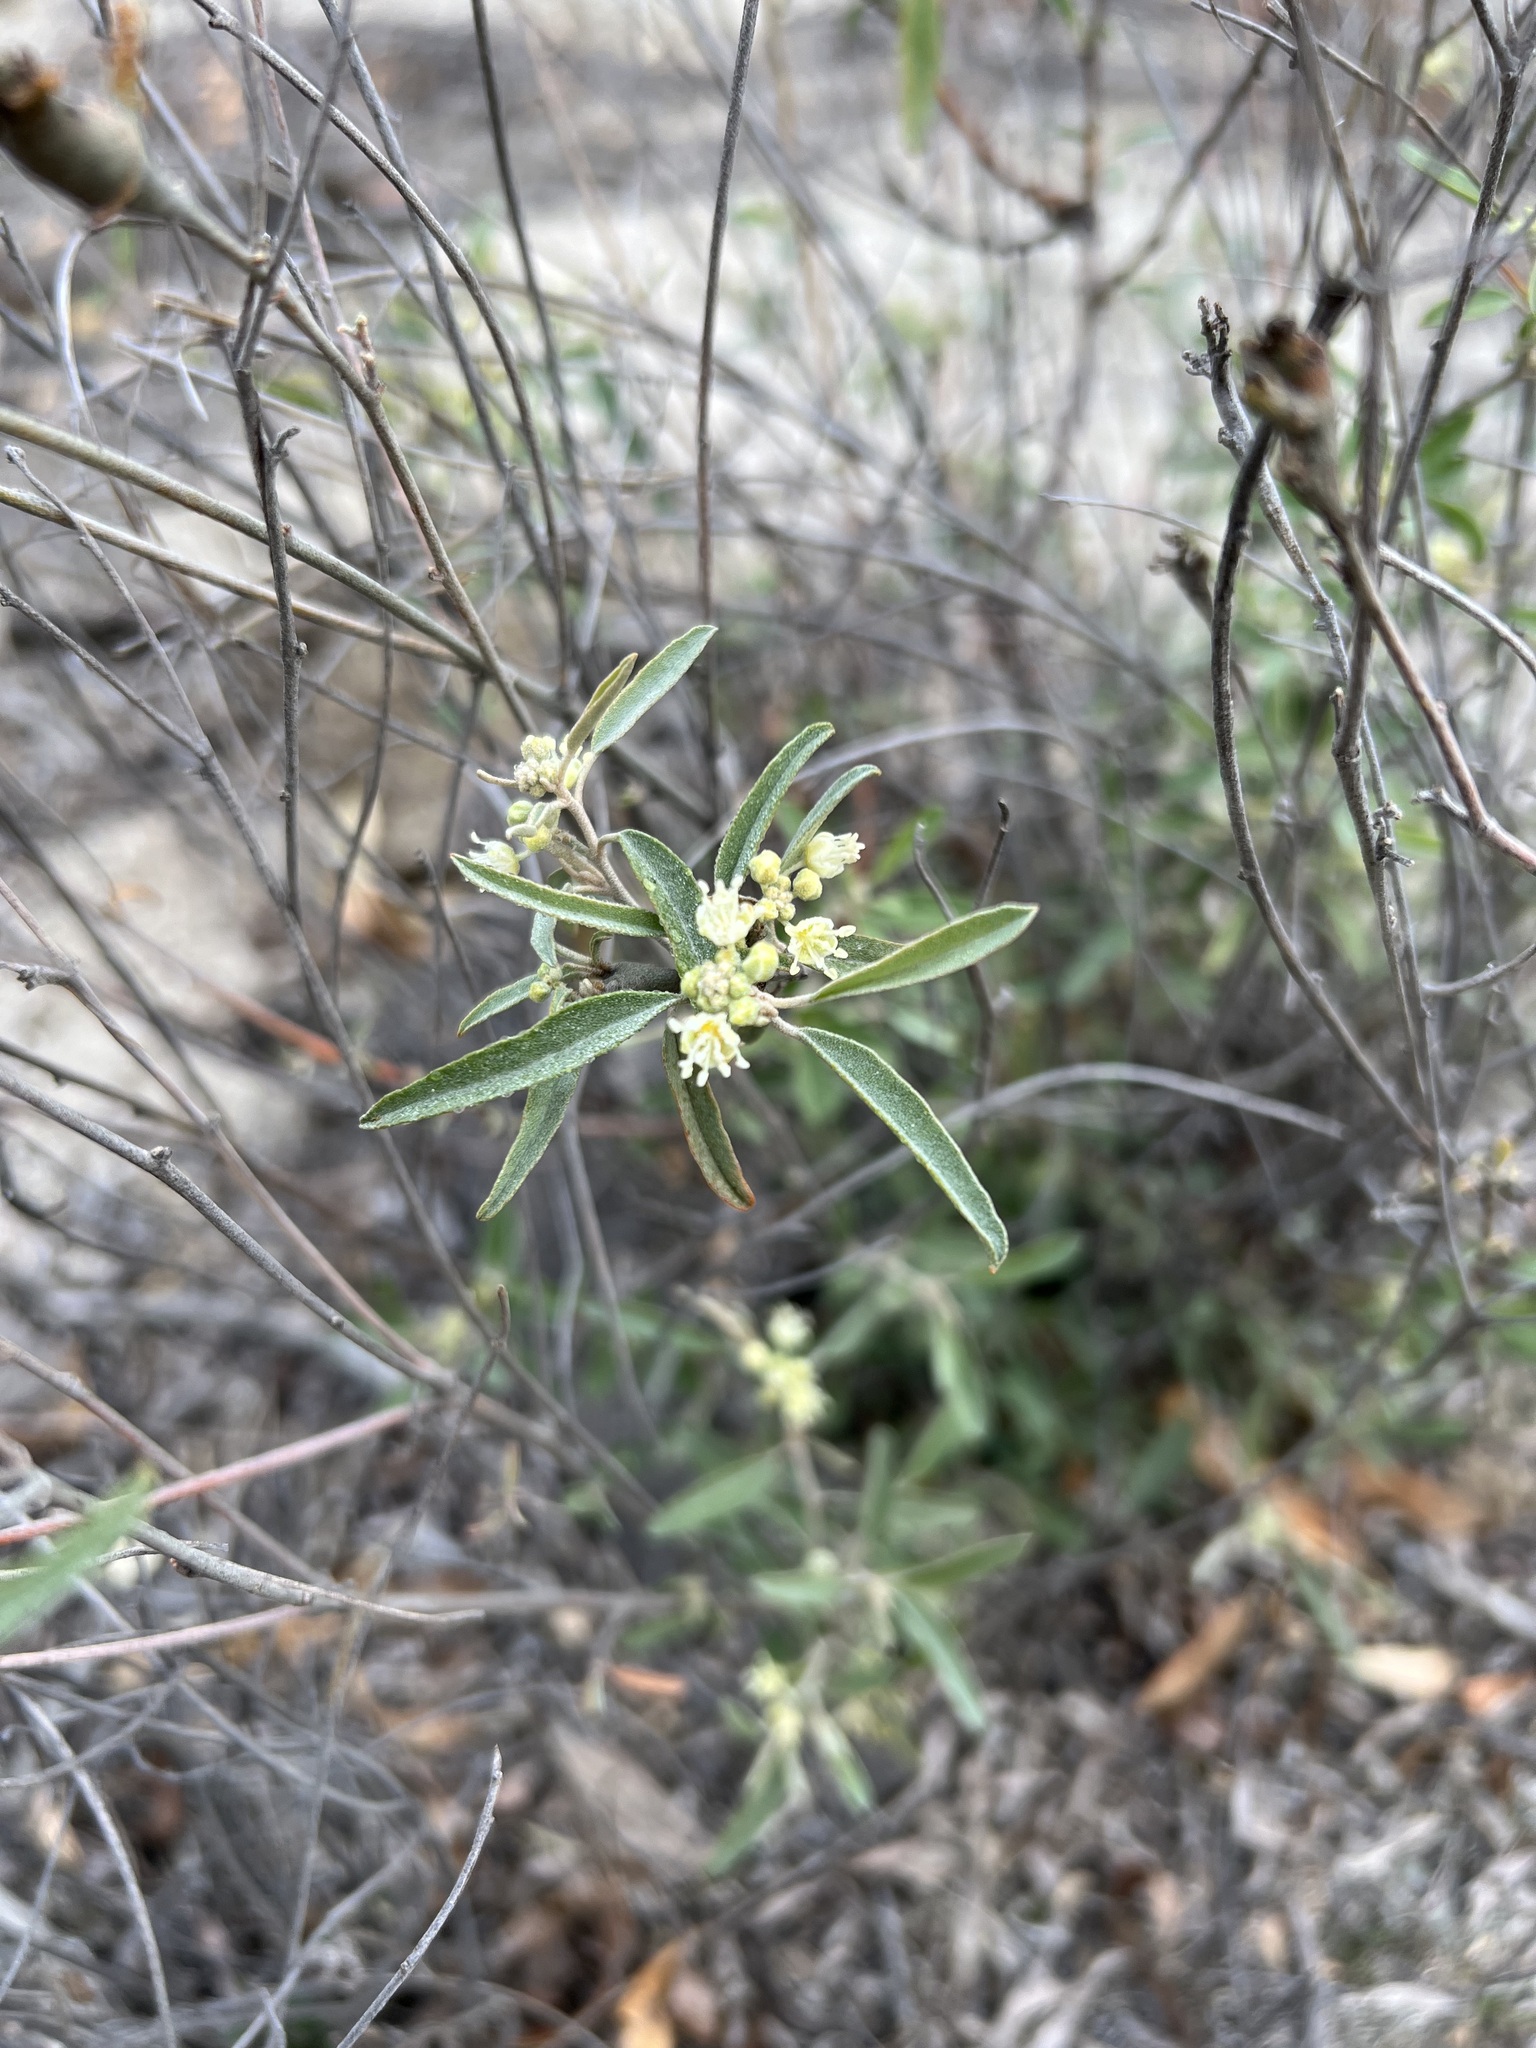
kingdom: Plantae
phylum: Tracheophyta
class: Magnoliopsida
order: Malpighiales
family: Euphorbiaceae
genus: Croton
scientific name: Croton californicus
